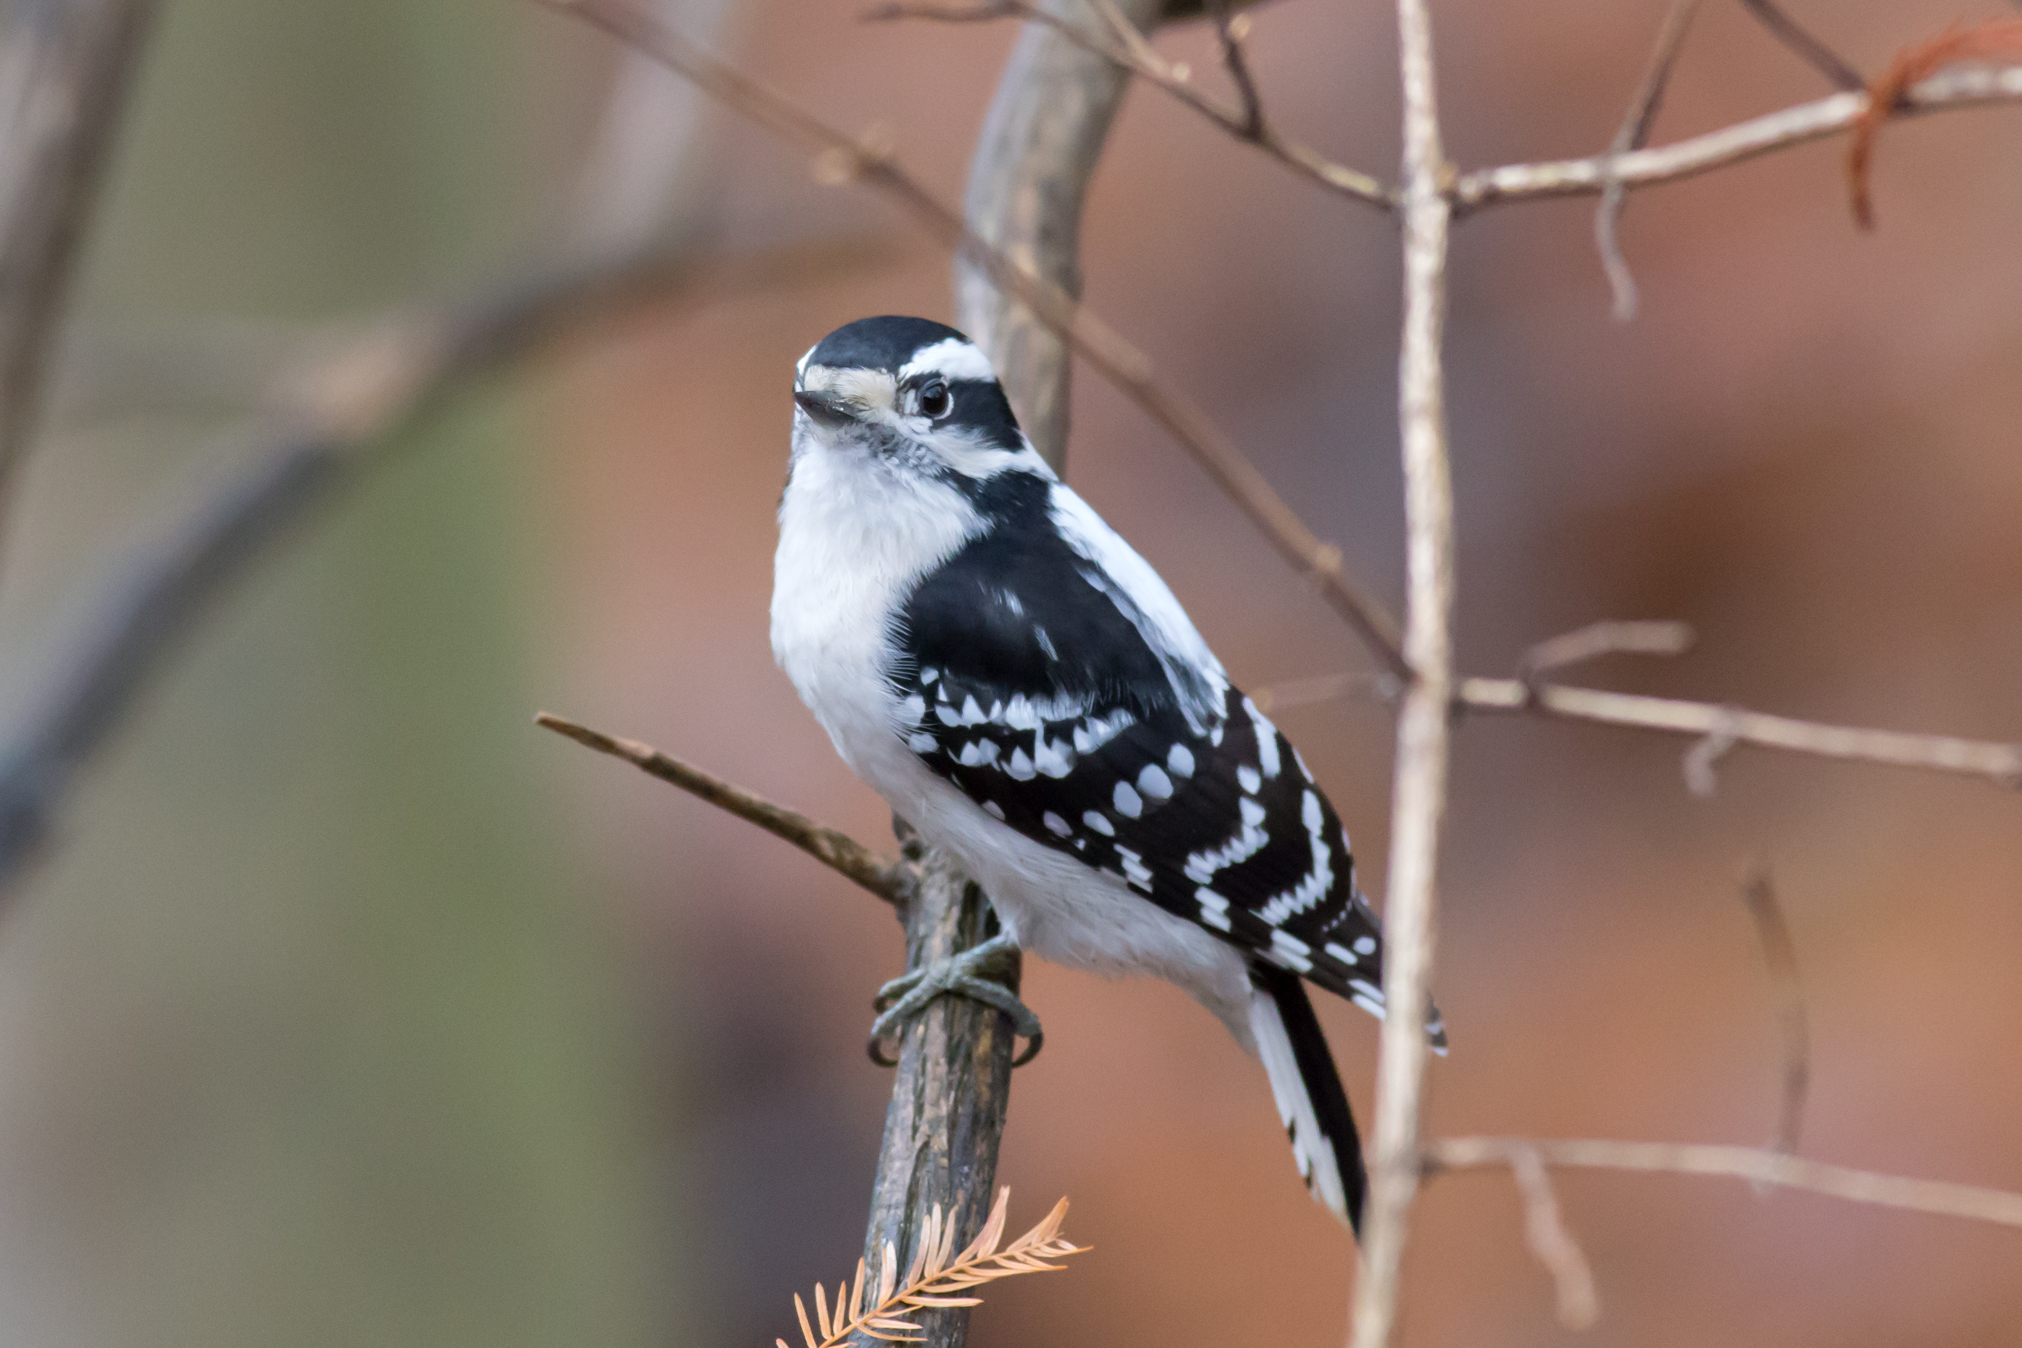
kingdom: Animalia
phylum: Chordata
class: Aves
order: Piciformes
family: Picidae
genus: Dryobates
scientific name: Dryobates pubescens
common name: Downy woodpecker
